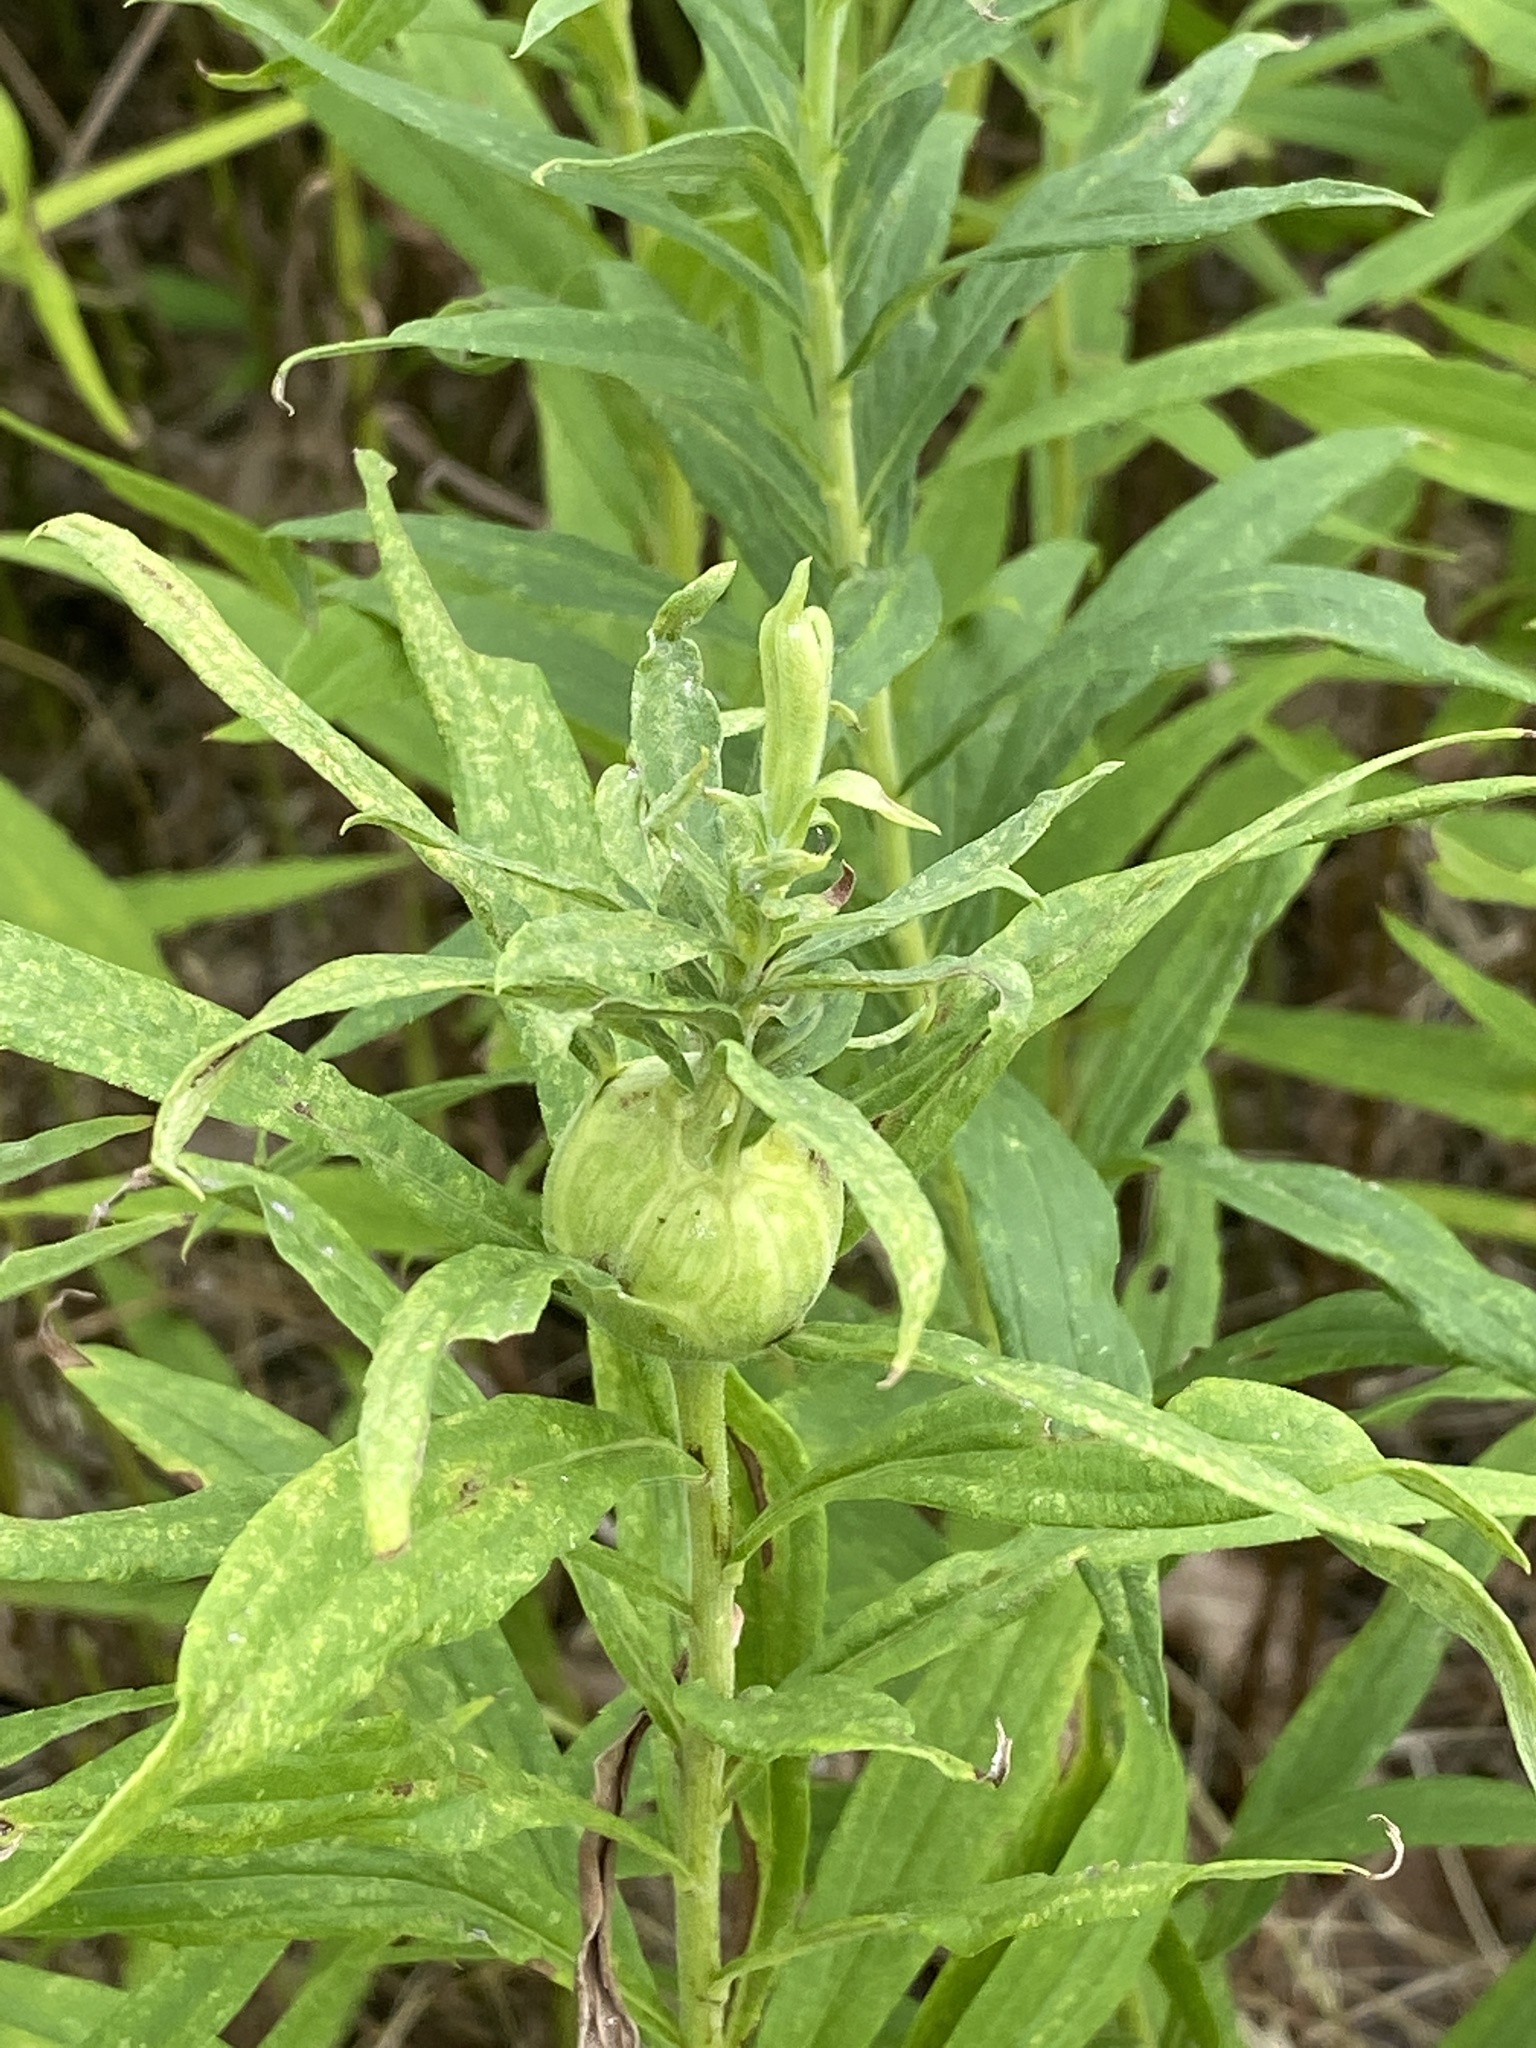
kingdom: Animalia
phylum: Arthropoda
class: Insecta
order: Diptera
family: Tephritidae
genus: Eurosta
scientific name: Eurosta solidaginis
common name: Goldenrod gall fly
